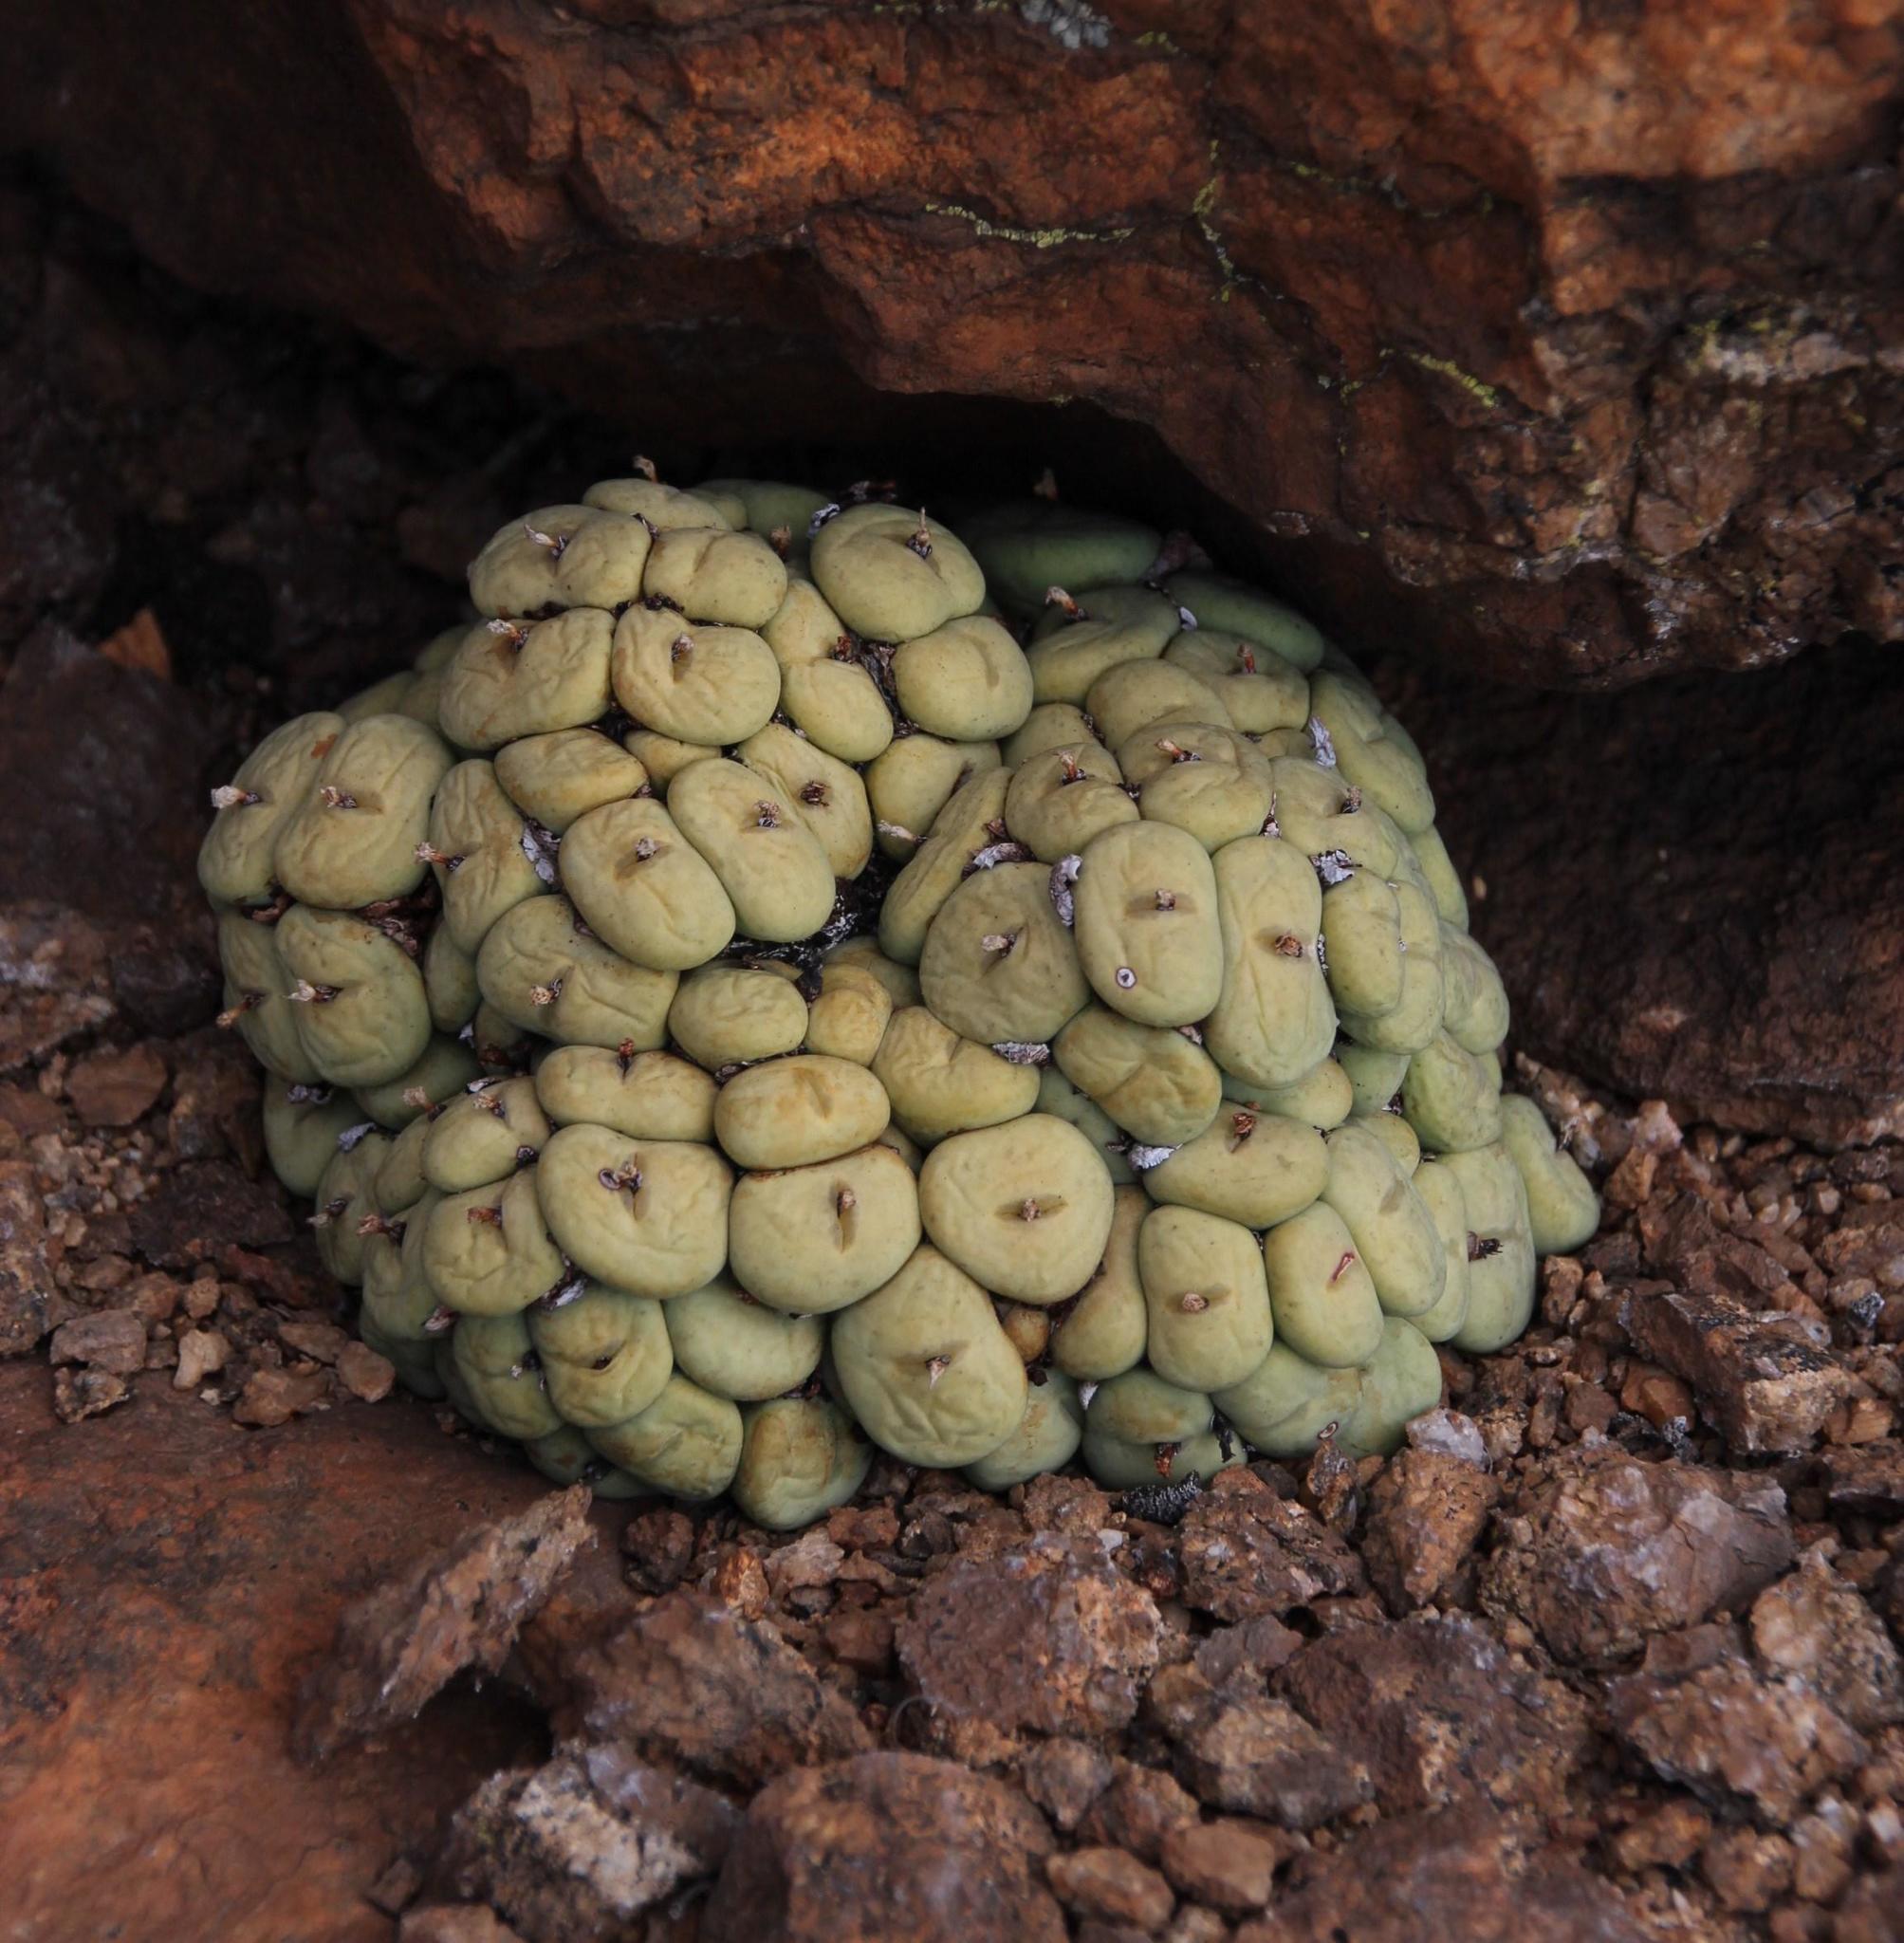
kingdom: Plantae
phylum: Tracheophyta
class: Magnoliopsida
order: Caryophyllales
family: Aizoaceae
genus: Conophytum
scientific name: Conophytum pageae
